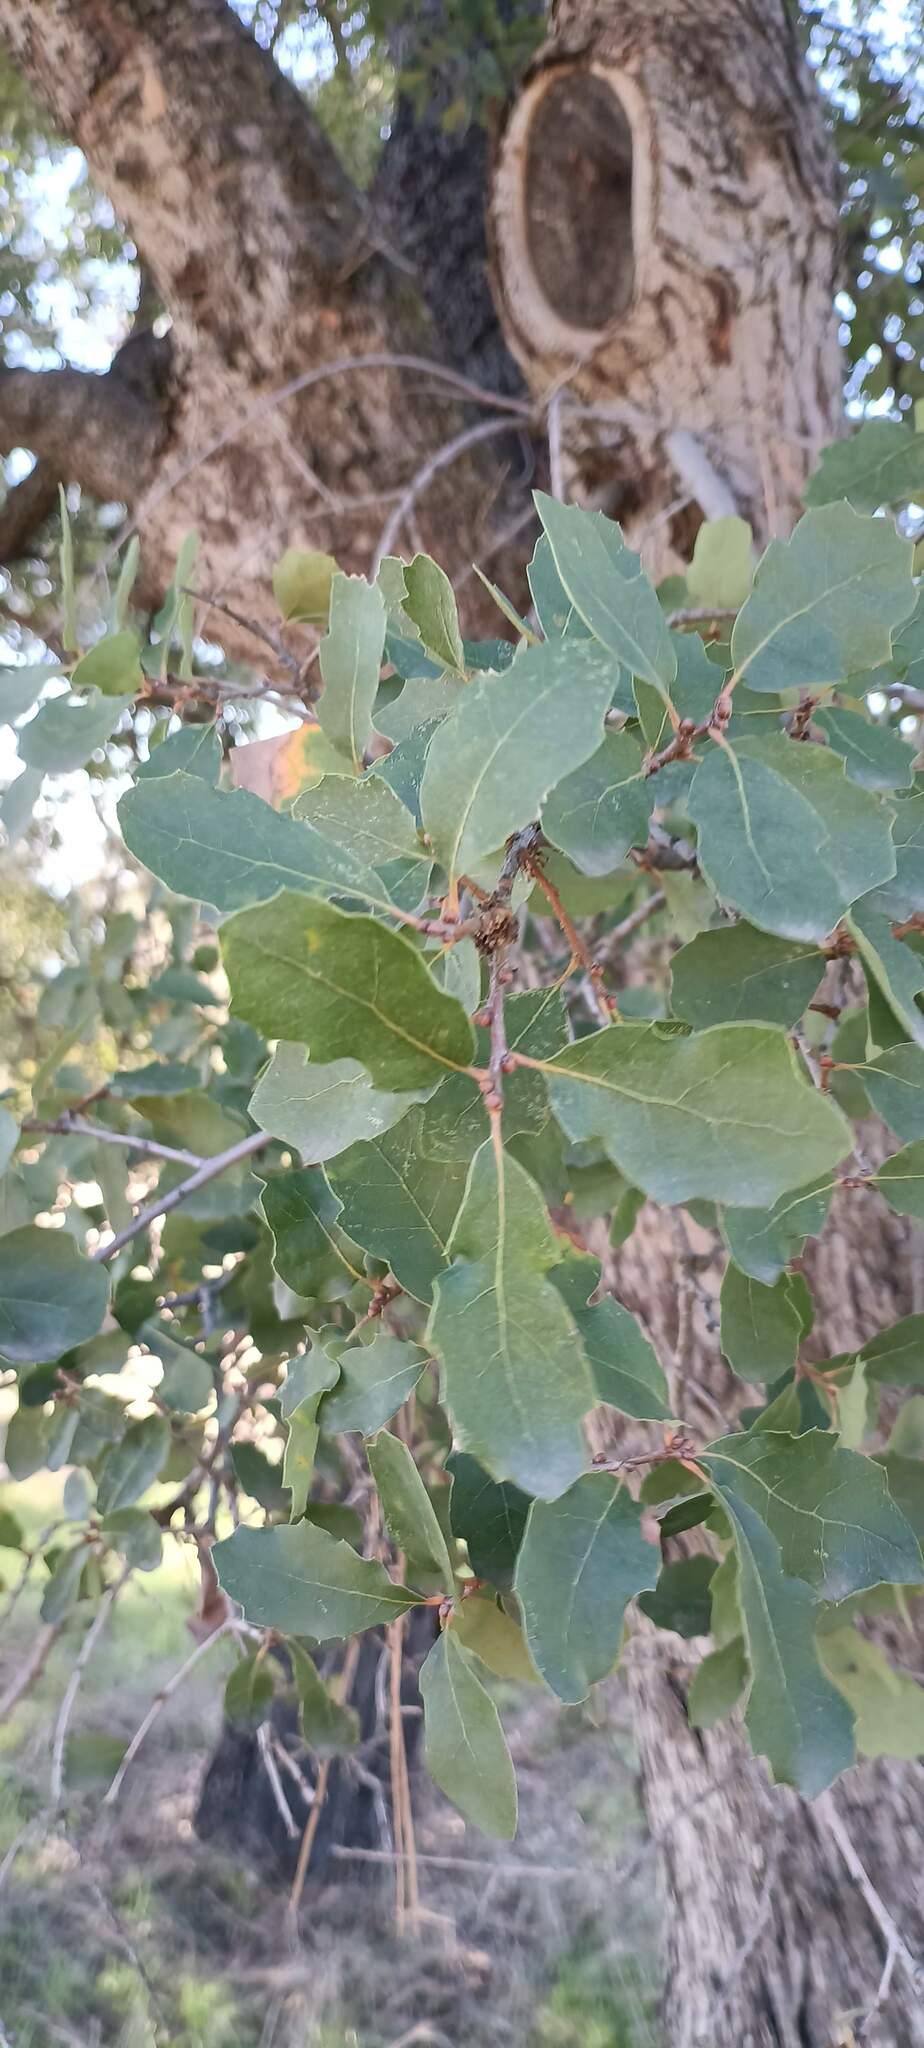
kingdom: Plantae
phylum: Tracheophyta
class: Magnoliopsida
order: Fagales
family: Fagaceae
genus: Quercus
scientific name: Quercus engelmannii
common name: Engelmann oak
